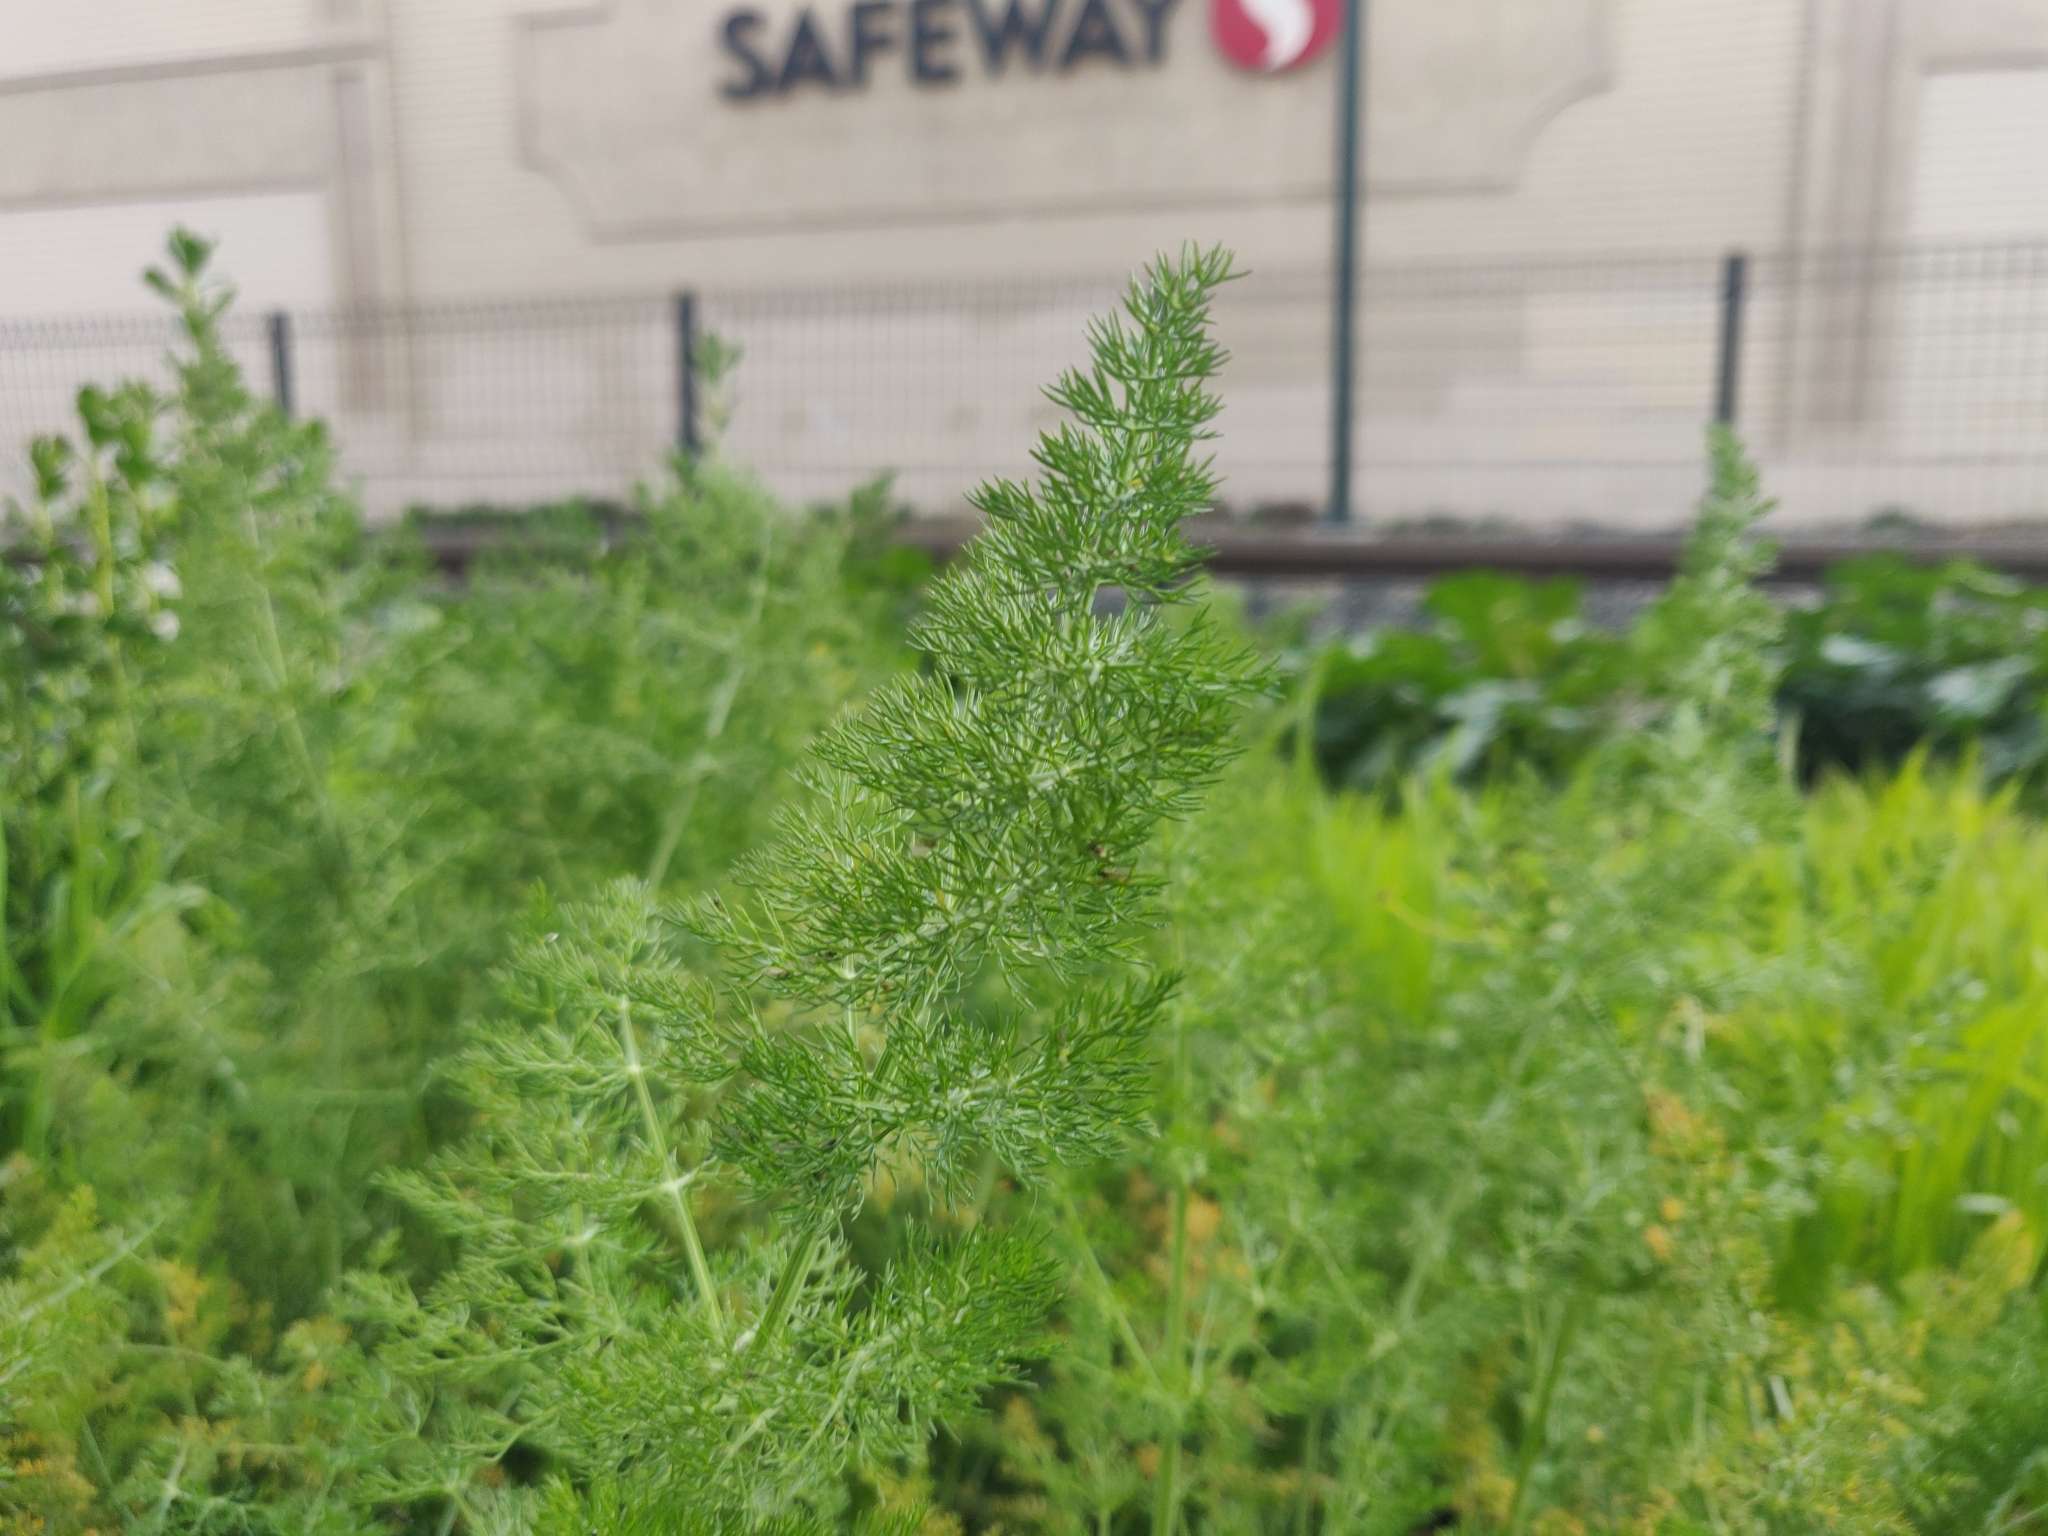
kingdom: Plantae
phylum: Tracheophyta
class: Magnoliopsida
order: Apiales
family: Apiaceae
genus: Foeniculum
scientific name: Foeniculum vulgare
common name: Fennel
